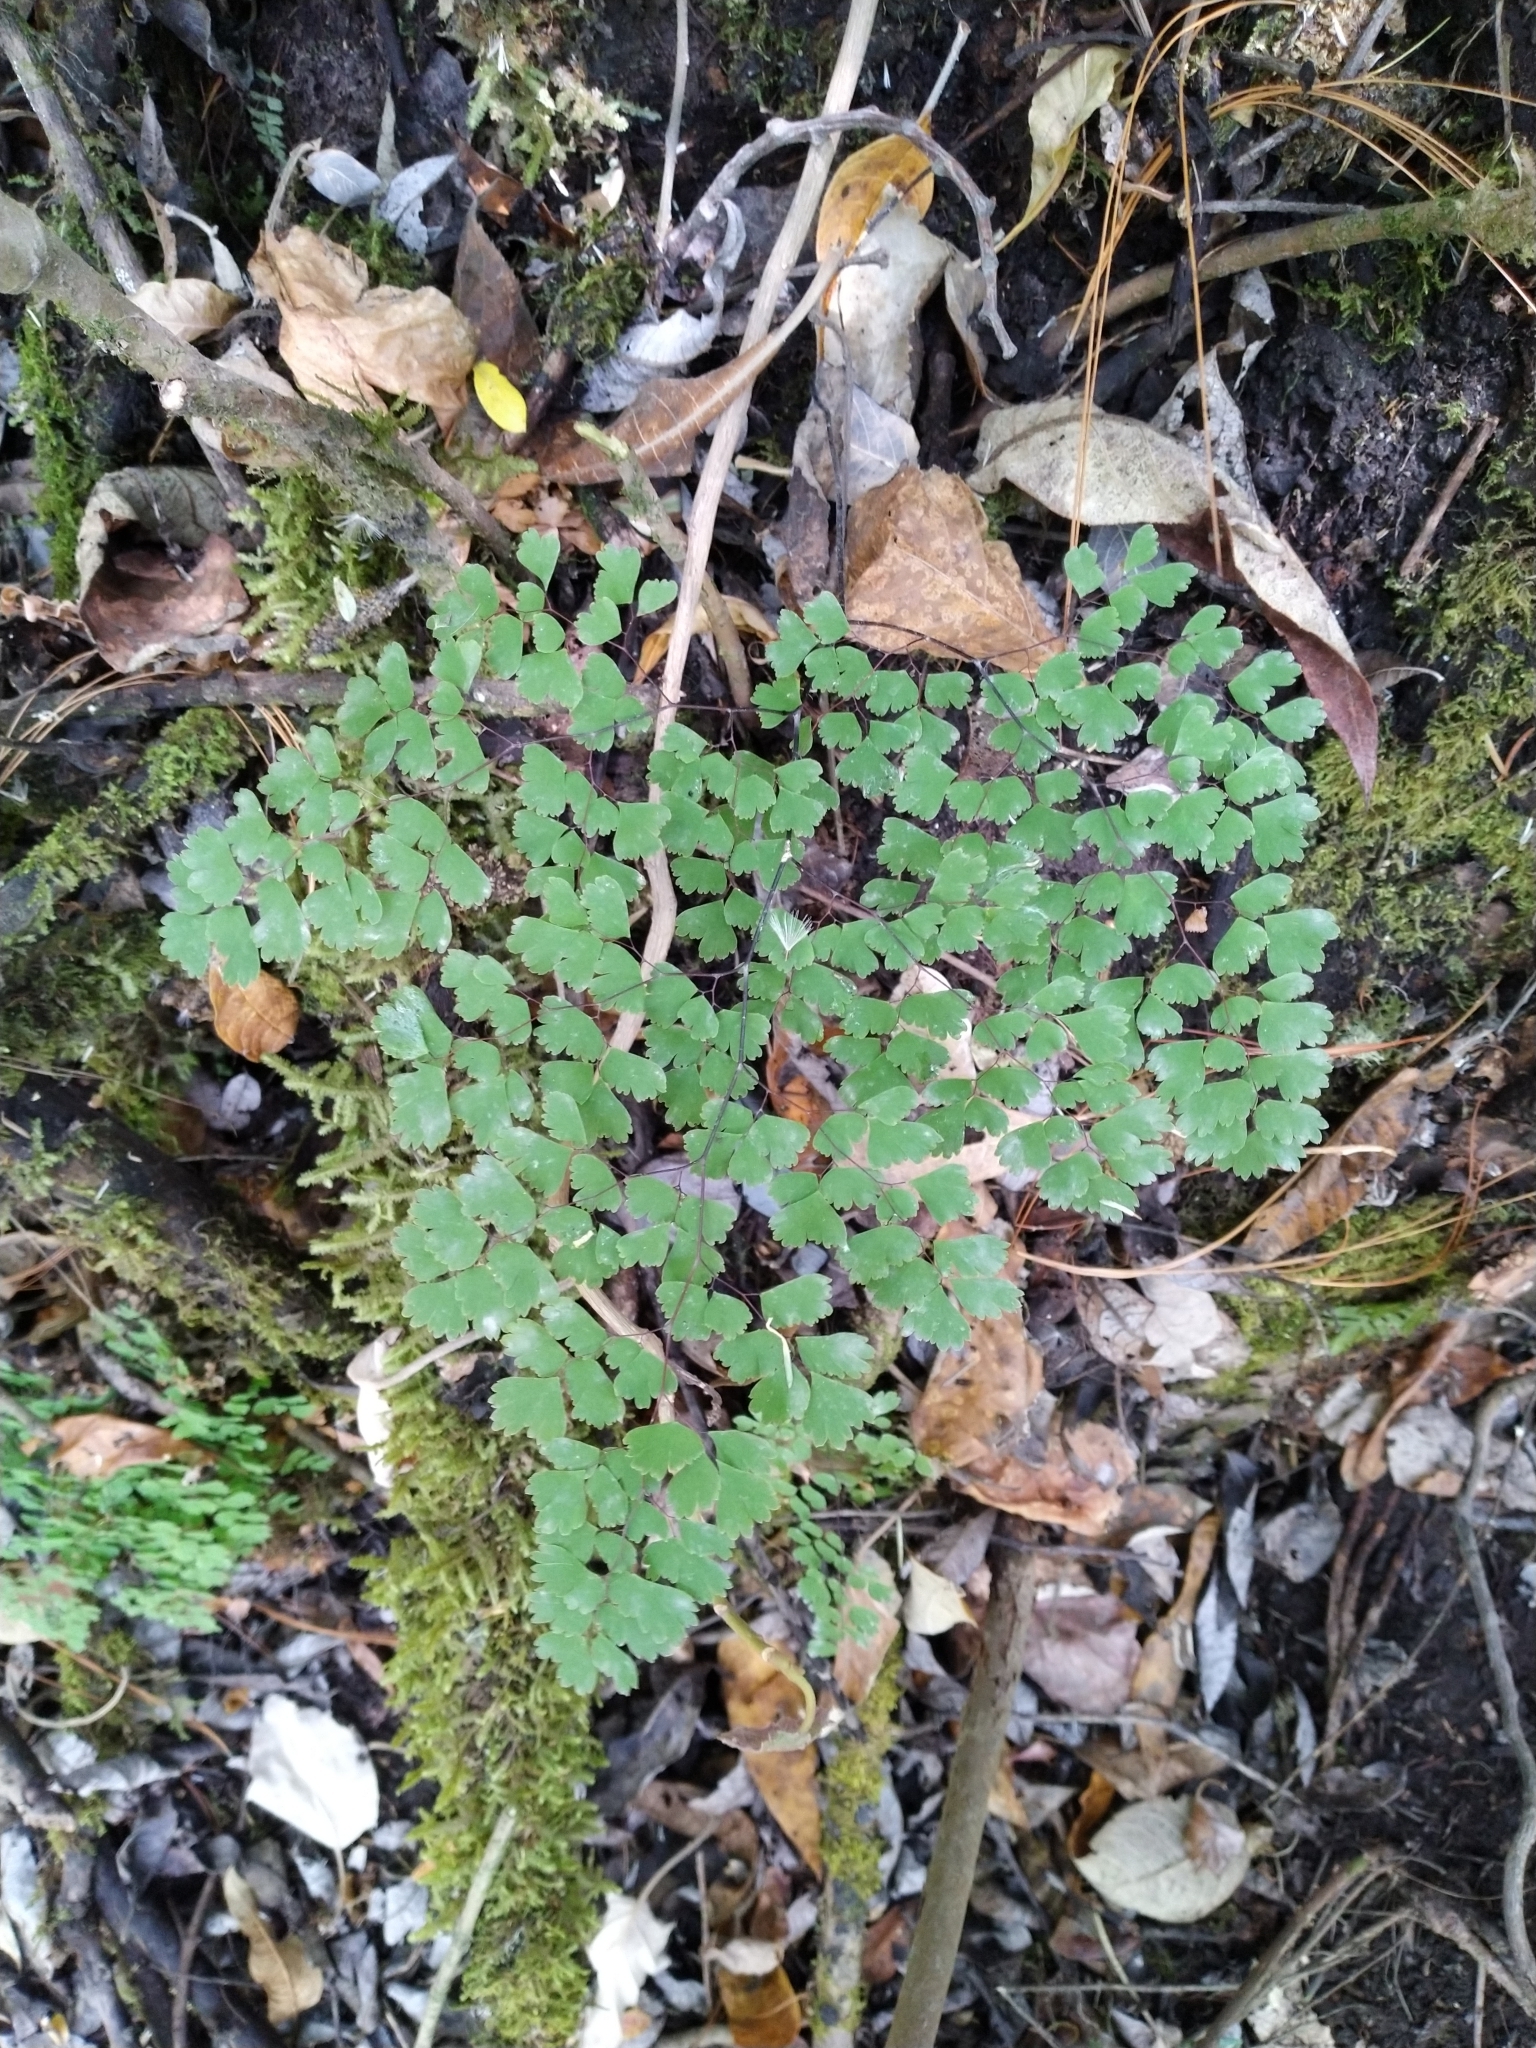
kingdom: Plantae
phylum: Tracheophyta
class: Polypodiopsida
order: Polypodiales
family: Pteridaceae
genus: Adiantum
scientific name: Adiantum andicola
